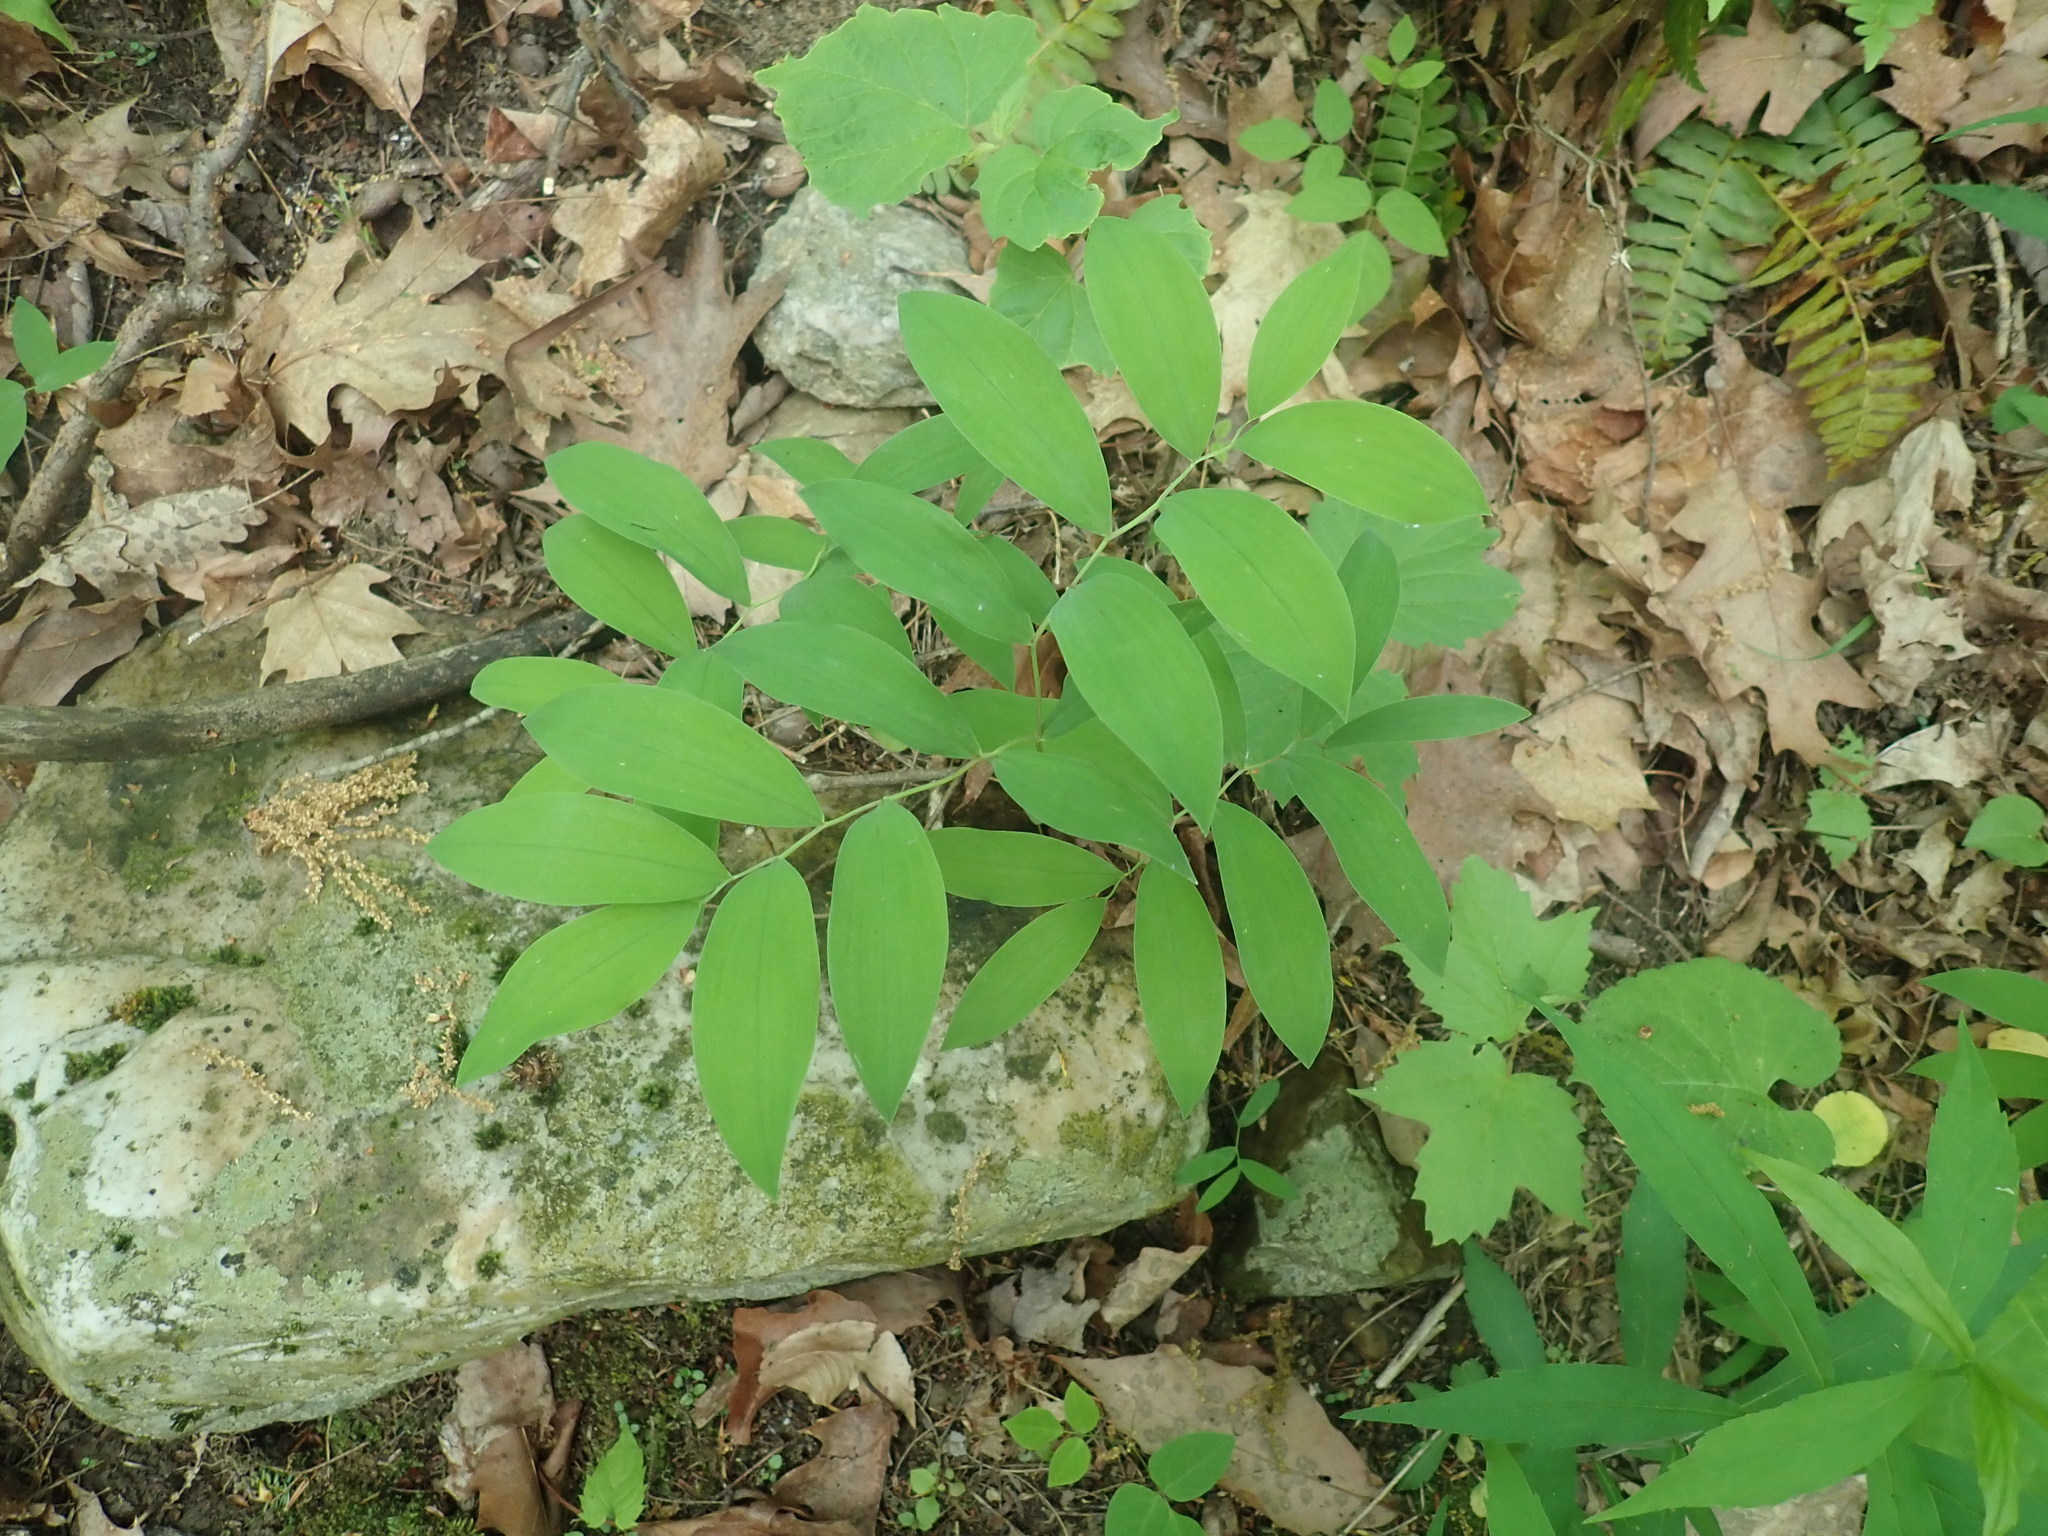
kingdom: Plantae
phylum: Tracheophyta
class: Liliopsida
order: Liliales
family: Colchicaceae
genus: Uvularia
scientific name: Uvularia sessilifolia
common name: Straw-lily
